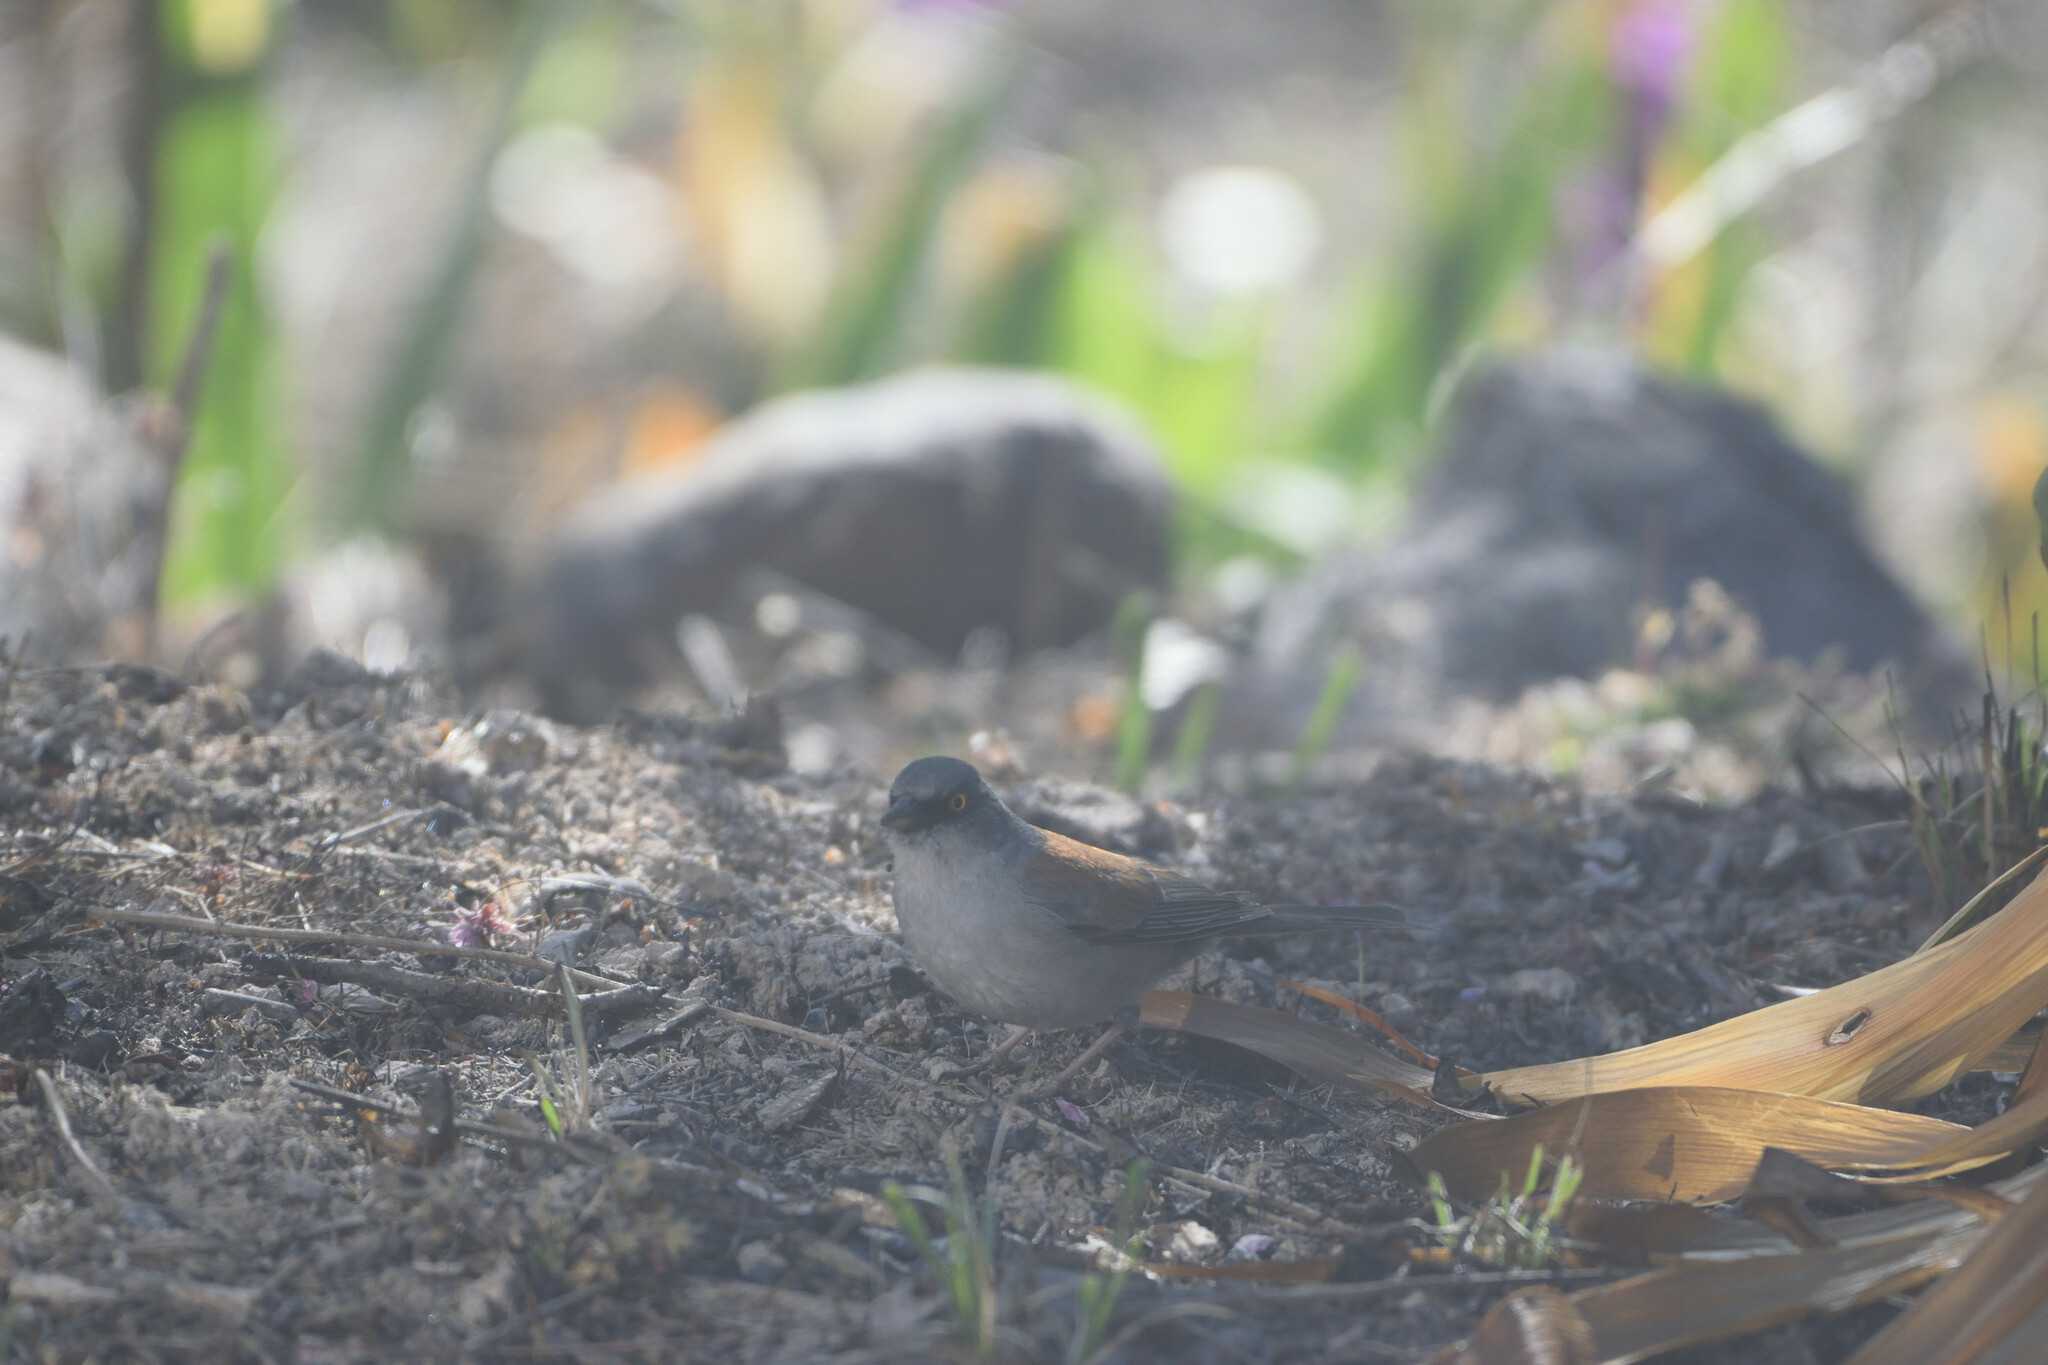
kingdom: Animalia
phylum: Chordata
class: Aves
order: Passeriformes
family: Passerellidae
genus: Junco
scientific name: Junco phaeonotus
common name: Yellow-eyed junco
